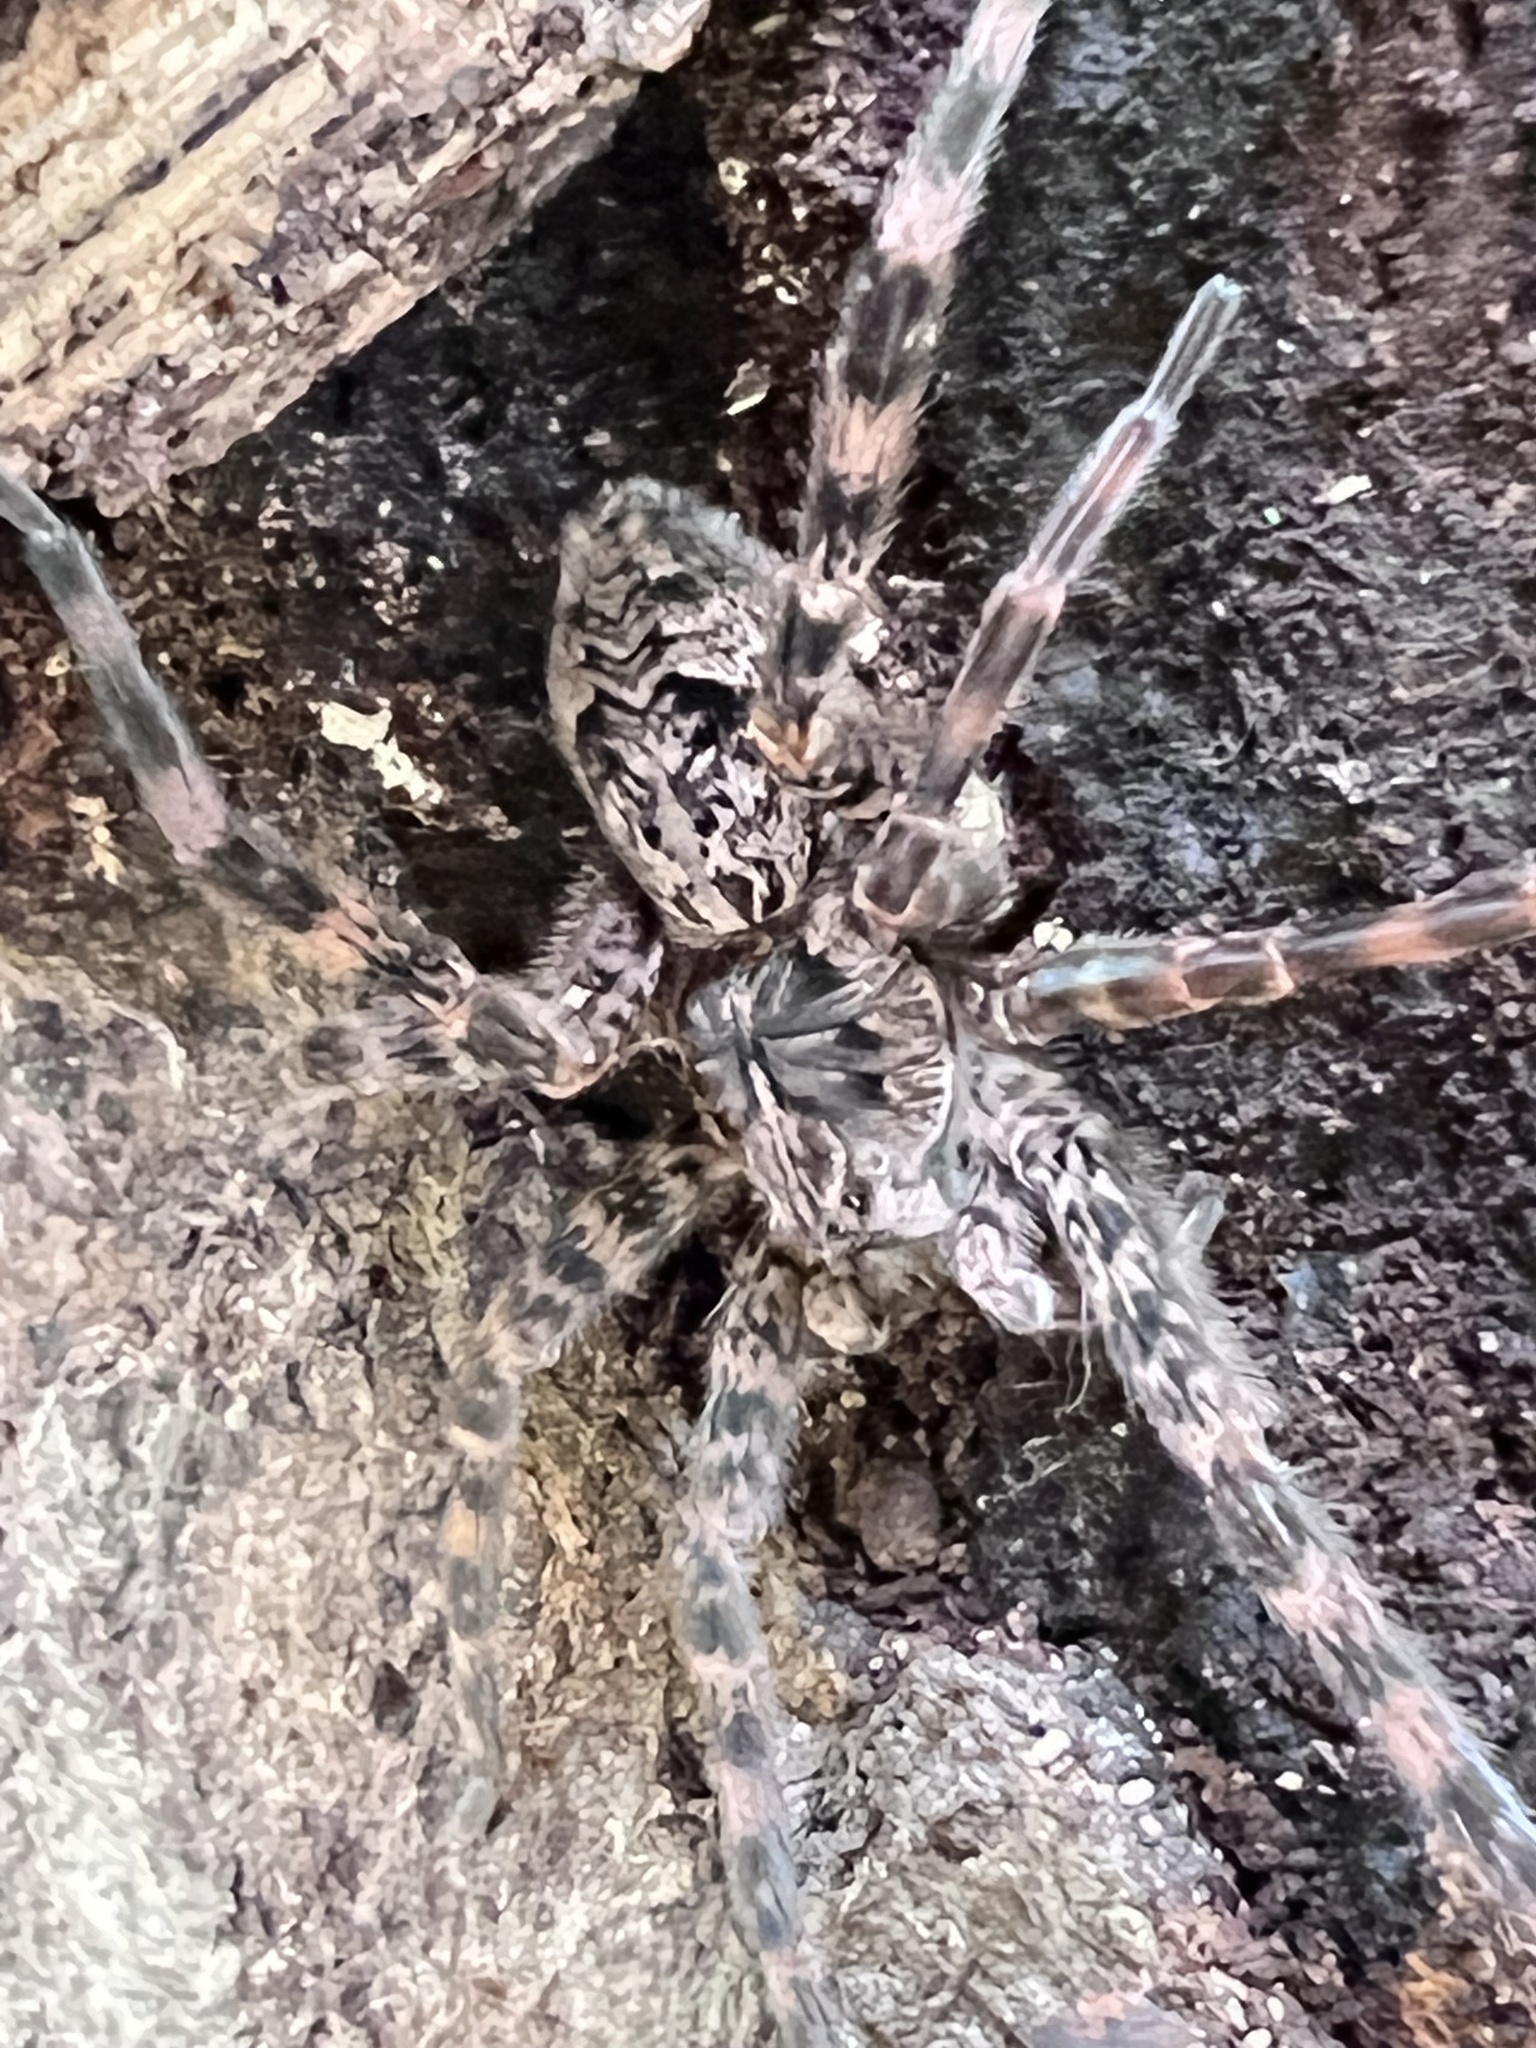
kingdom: Animalia
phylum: Arthropoda
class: Arachnida
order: Araneae
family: Pisauridae
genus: Dolomedes
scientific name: Dolomedes tenebrosus
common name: Dark fishing spider
